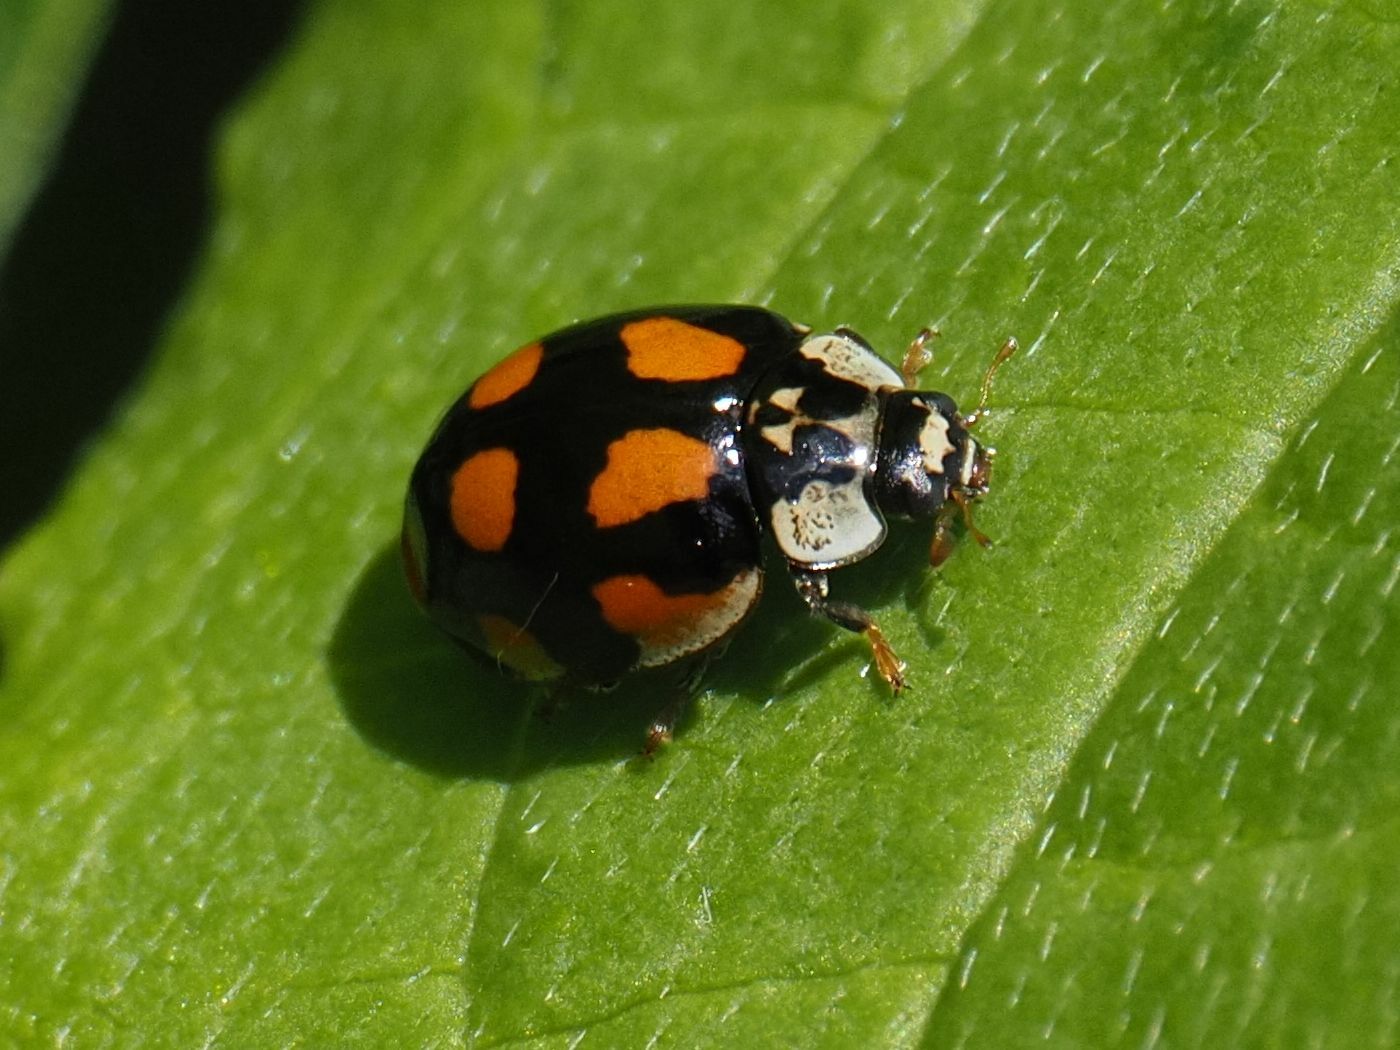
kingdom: Animalia
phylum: Arthropoda
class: Insecta
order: Coleoptera
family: Coccinellidae
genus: Adalia
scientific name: Adalia decempunctata
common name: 10-spot ladybird
